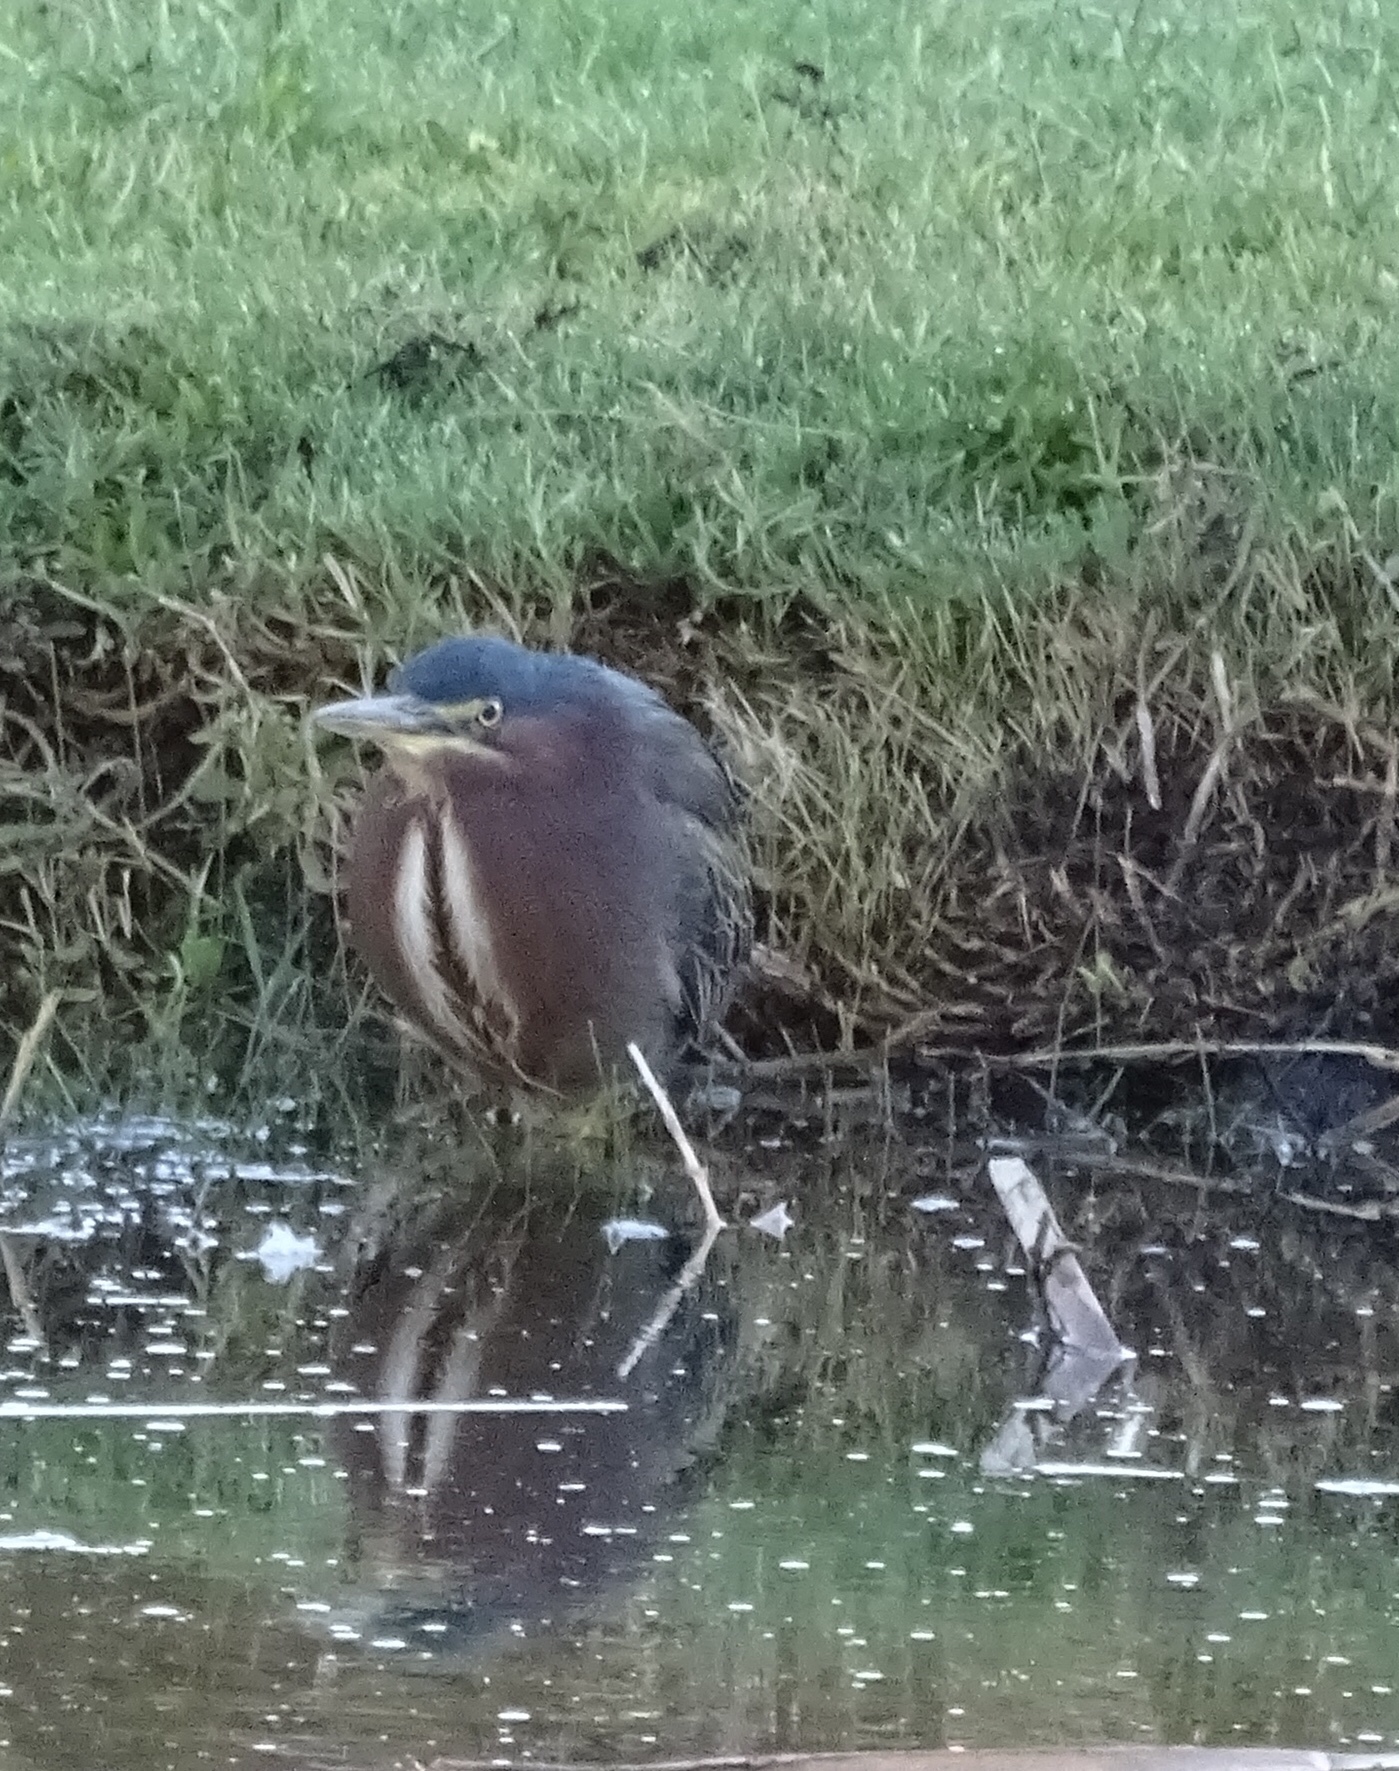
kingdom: Animalia
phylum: Chordata
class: Aves
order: Pelecaniformes
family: Ardeidae
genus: Butorides
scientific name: Butorides virescens
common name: Green heron
